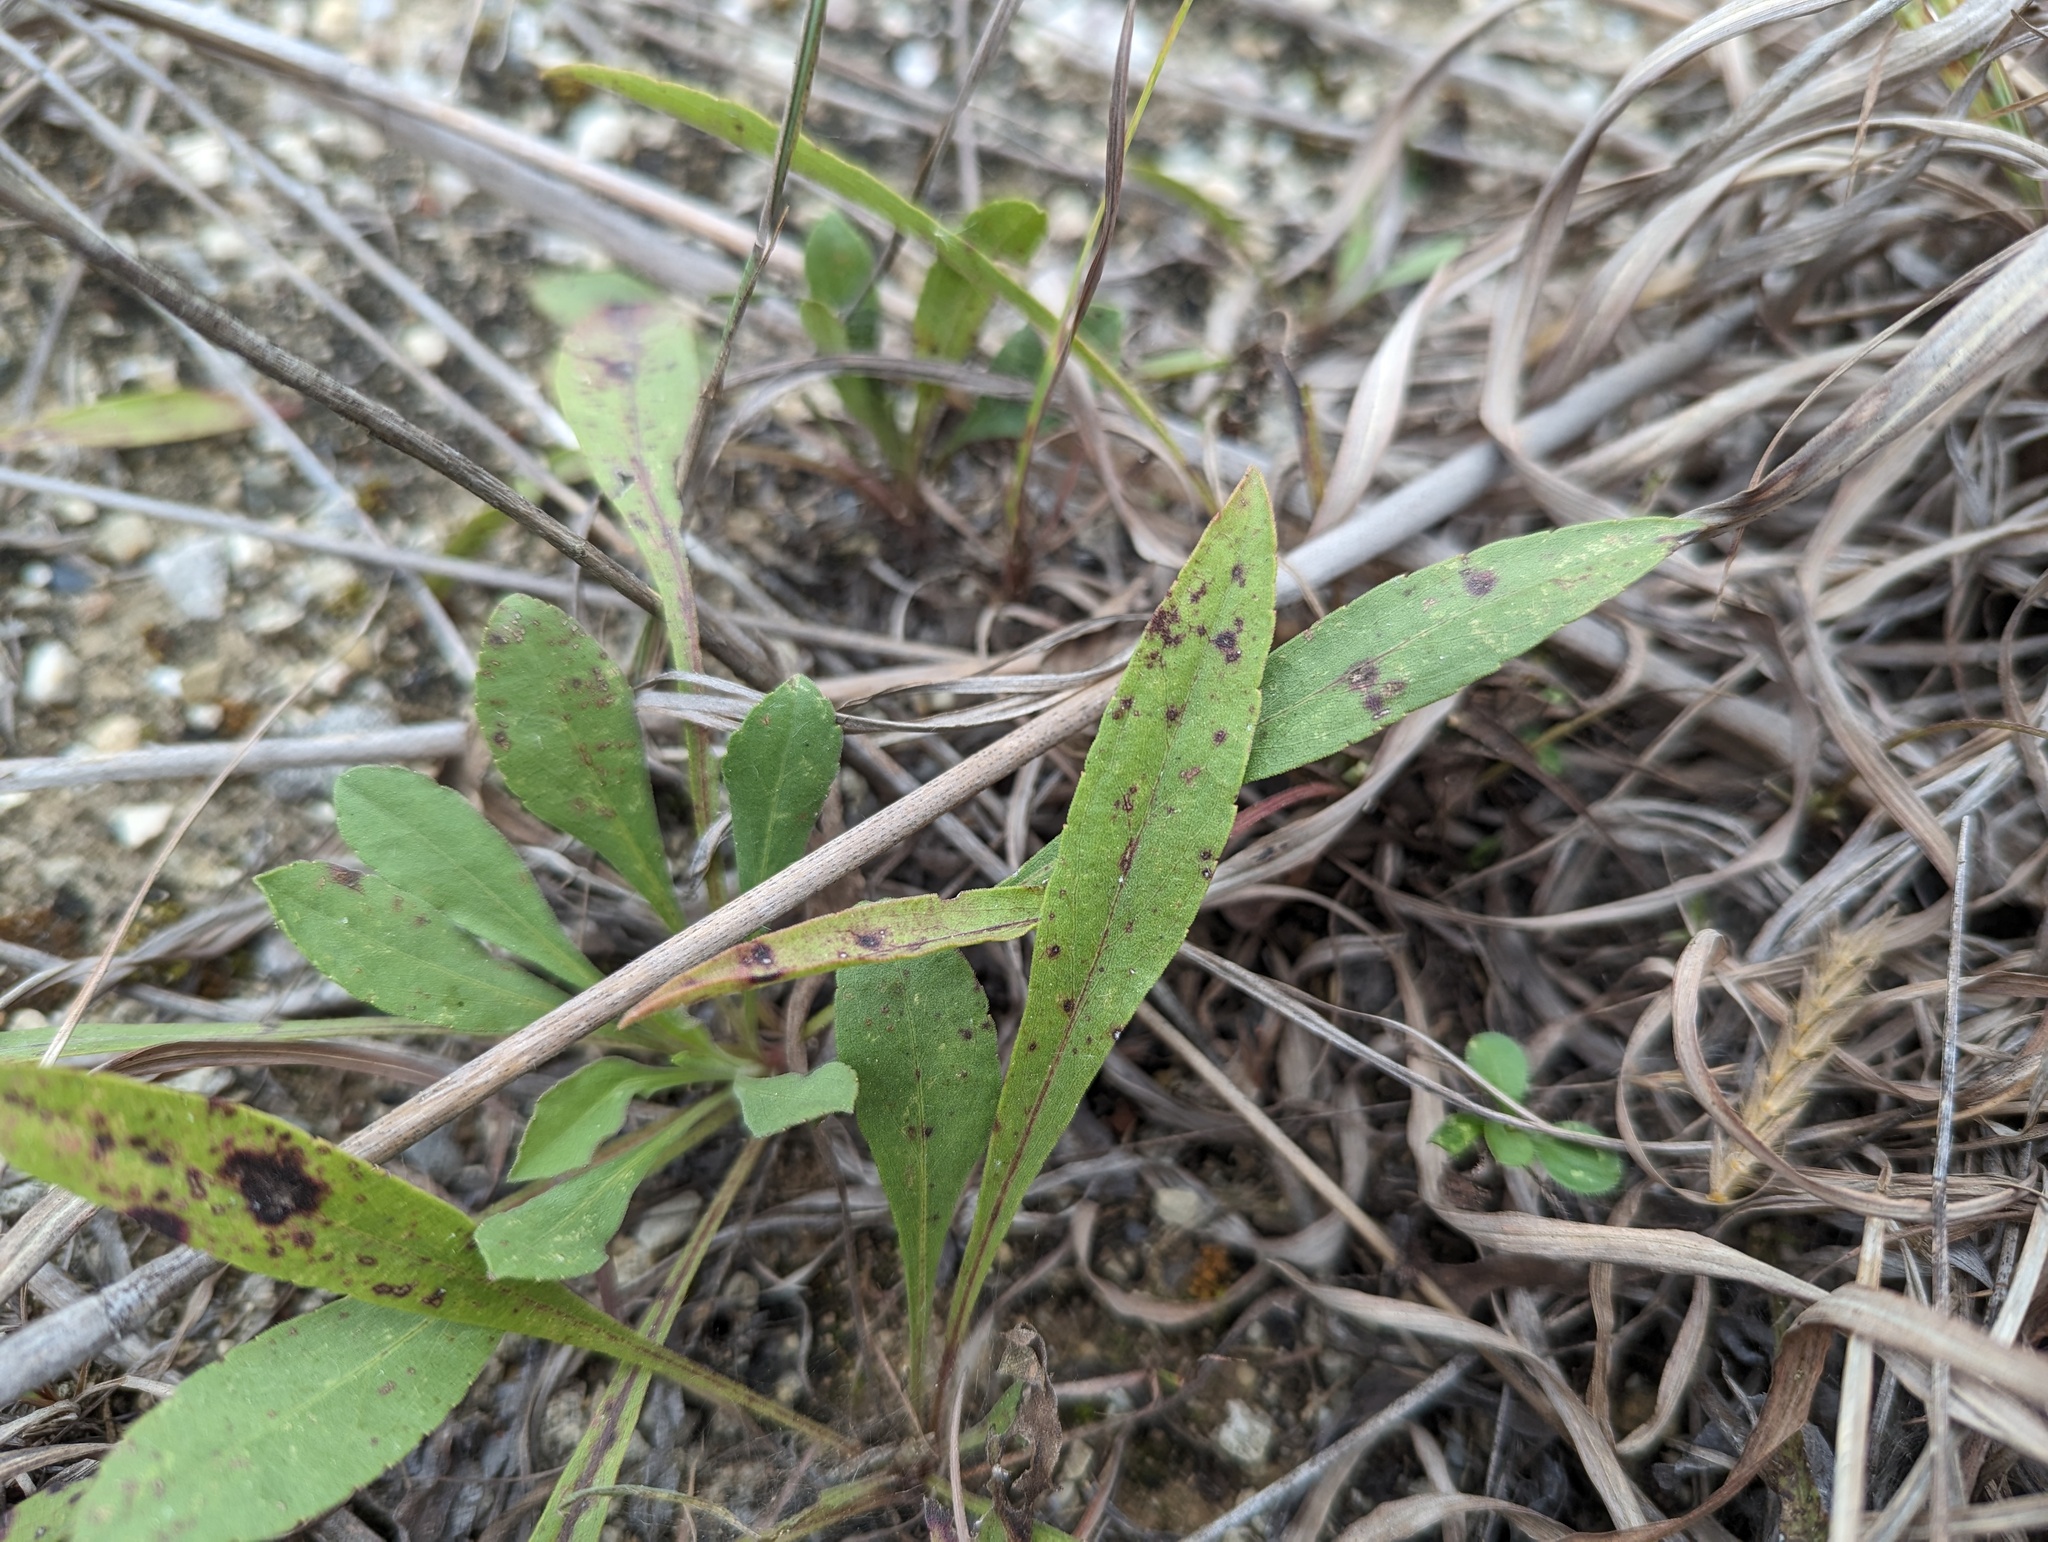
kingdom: Plantae
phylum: Tracheophyta
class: Magnoliopsida
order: Asterales
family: Asteraceae
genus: Solidago
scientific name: Solidago nemoralis
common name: Grey goldenrod
